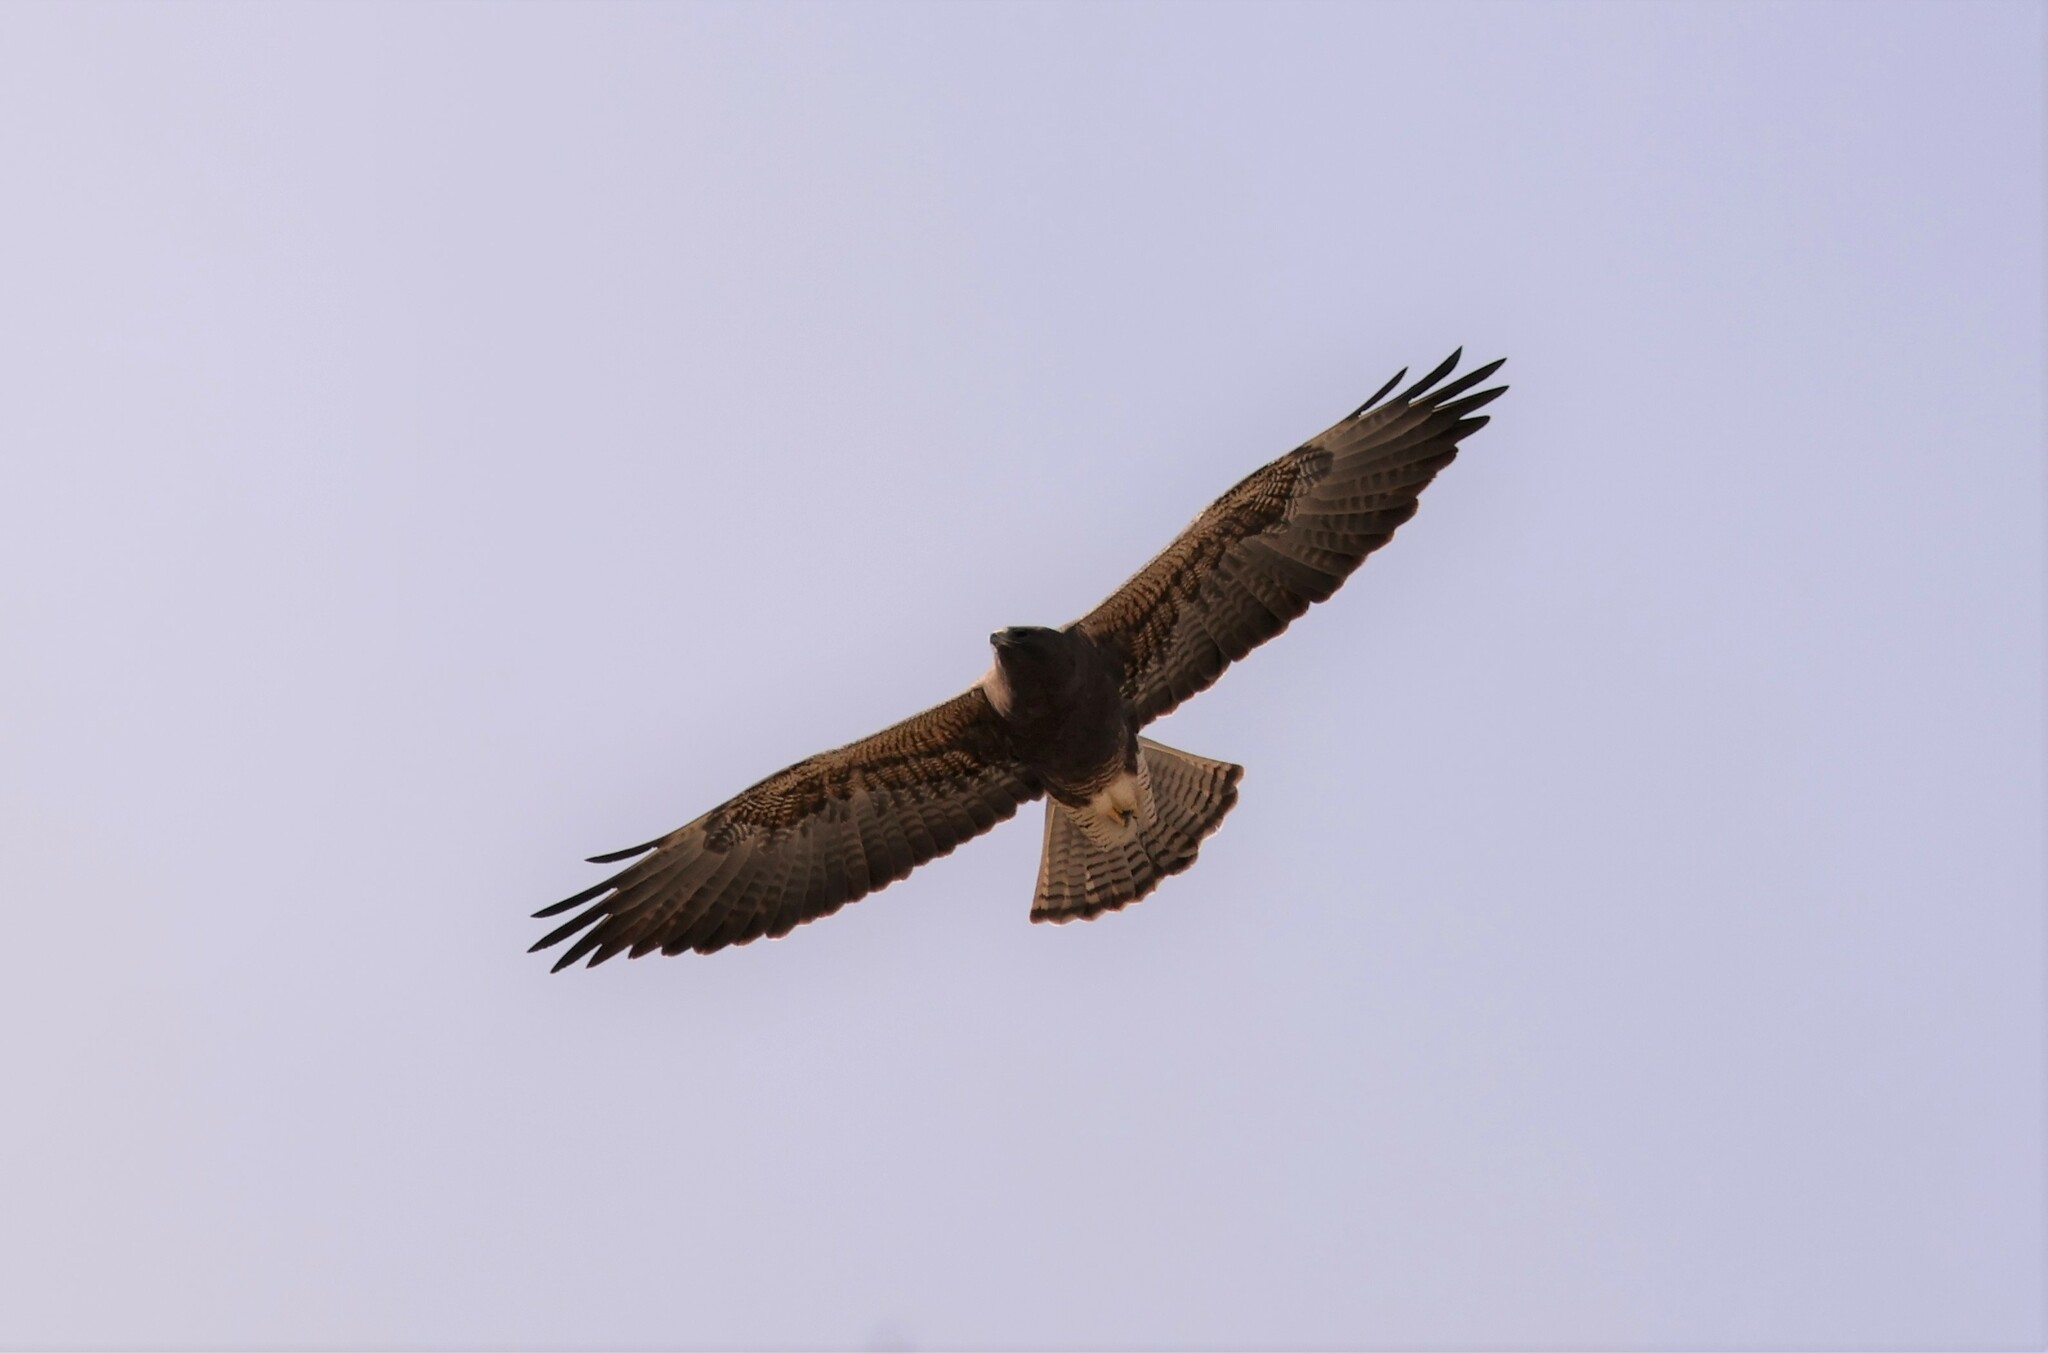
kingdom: Animalia
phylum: Chordata
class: Aves
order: Accipitriformes
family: Accipitridae
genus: Buteo
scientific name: Buteo swainsoni
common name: Swainson's hawk
